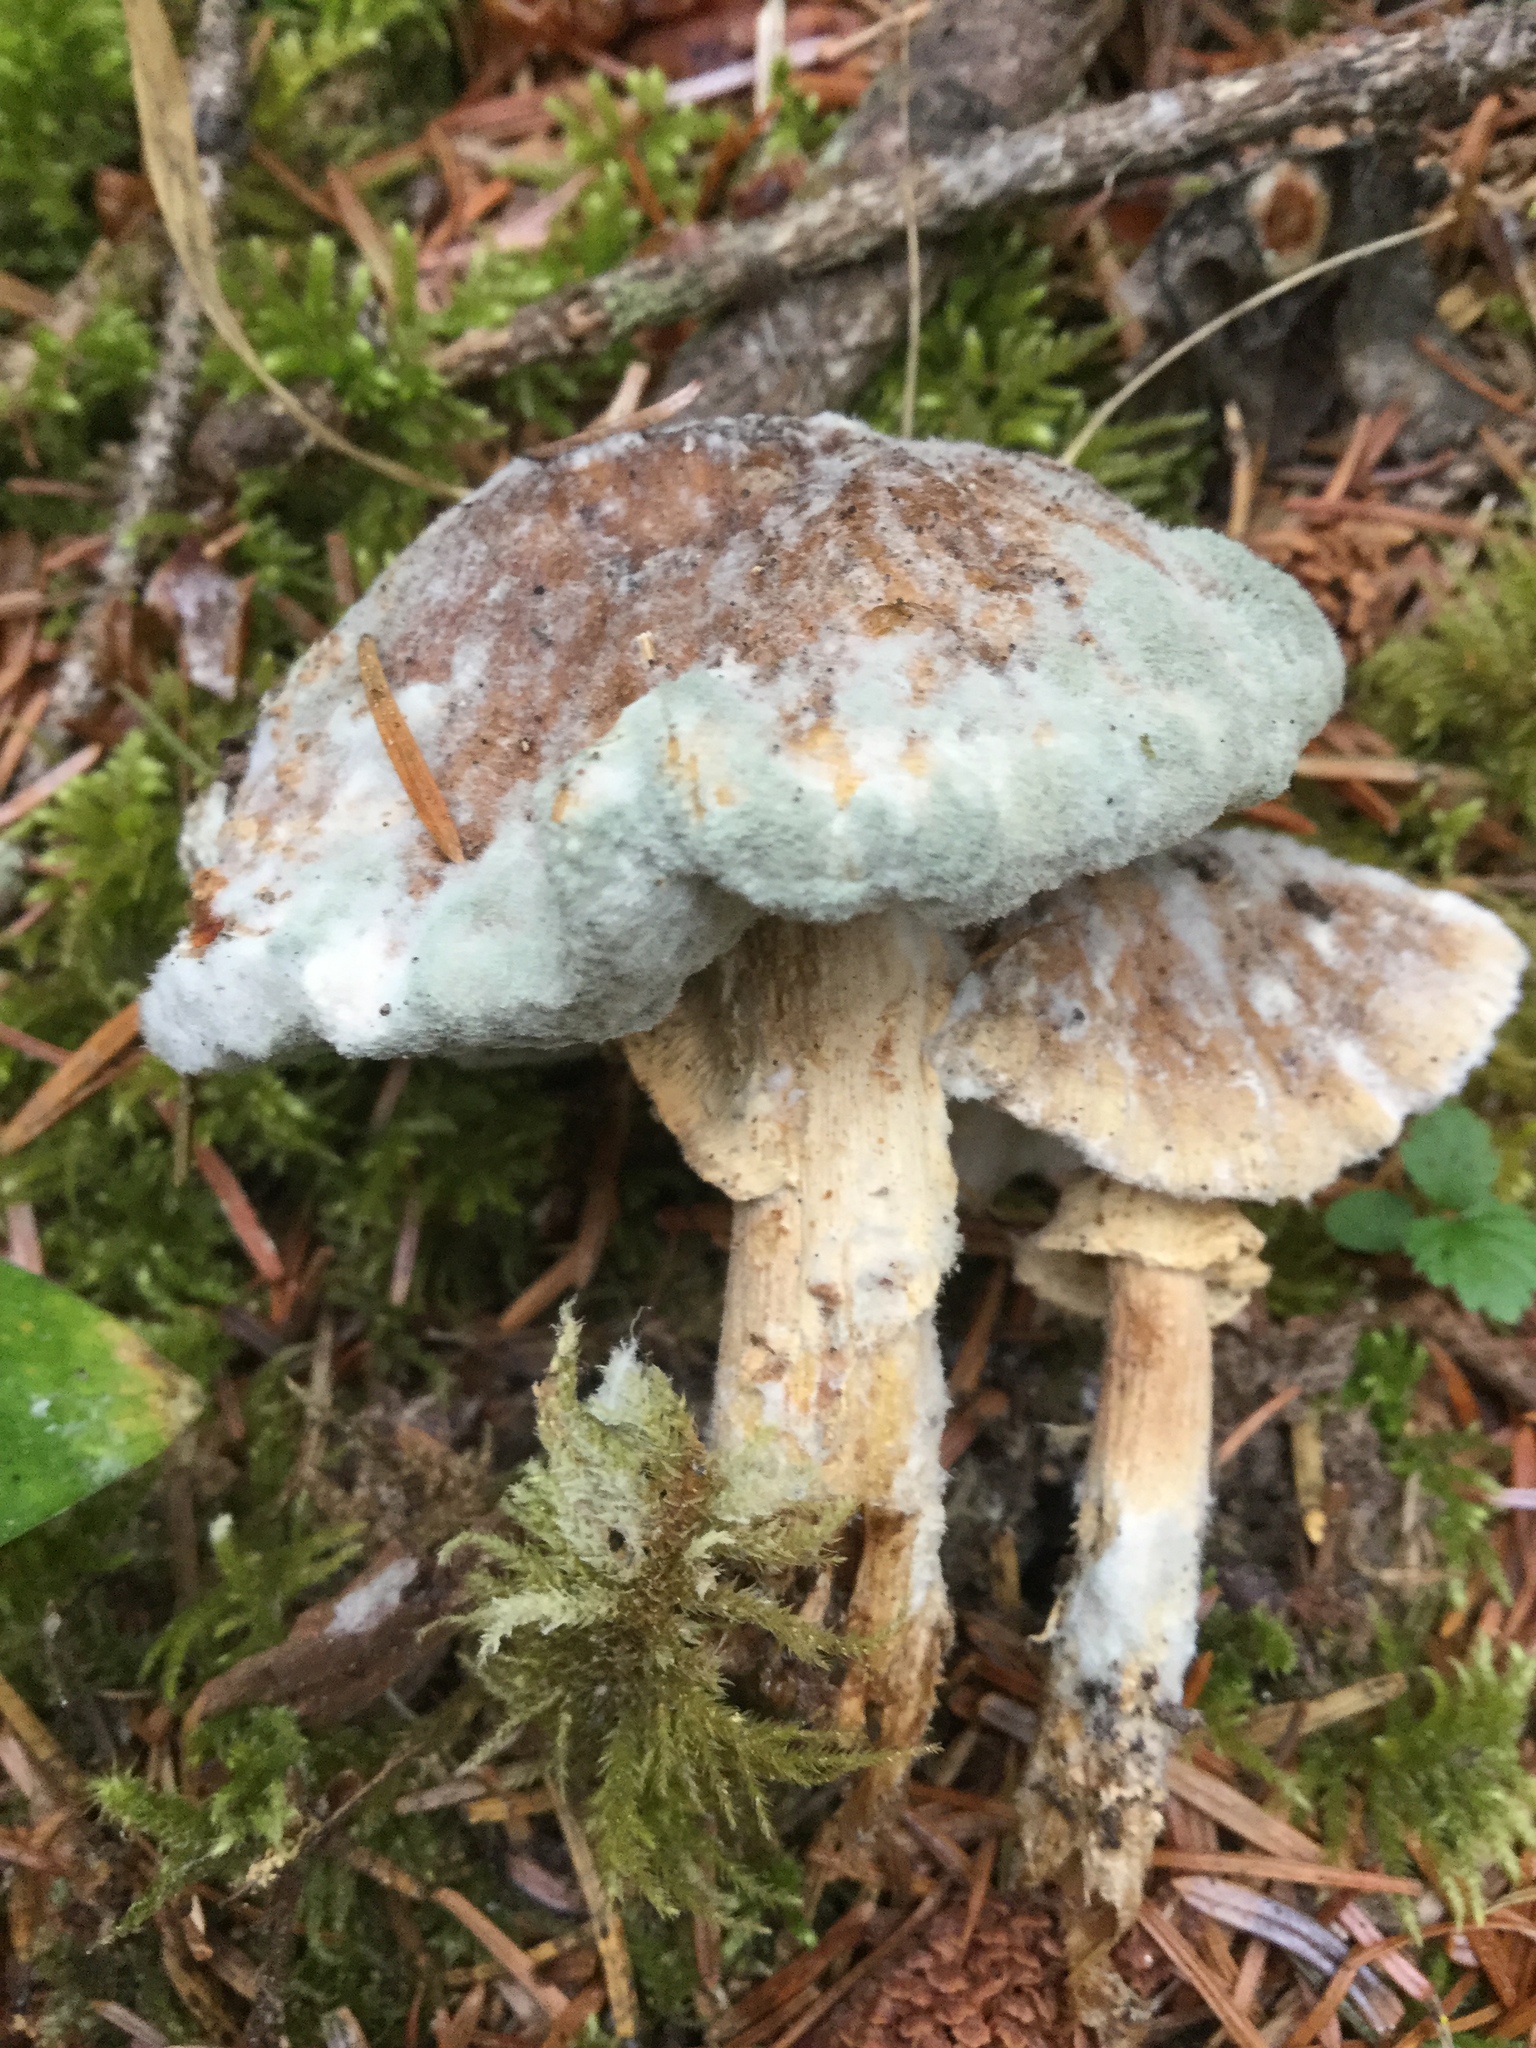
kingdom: Fungi
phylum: Basidiomycota
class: Agaricomycetes
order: Agaricales
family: Amanitaceae
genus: Amanita
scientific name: Amanita augusta
